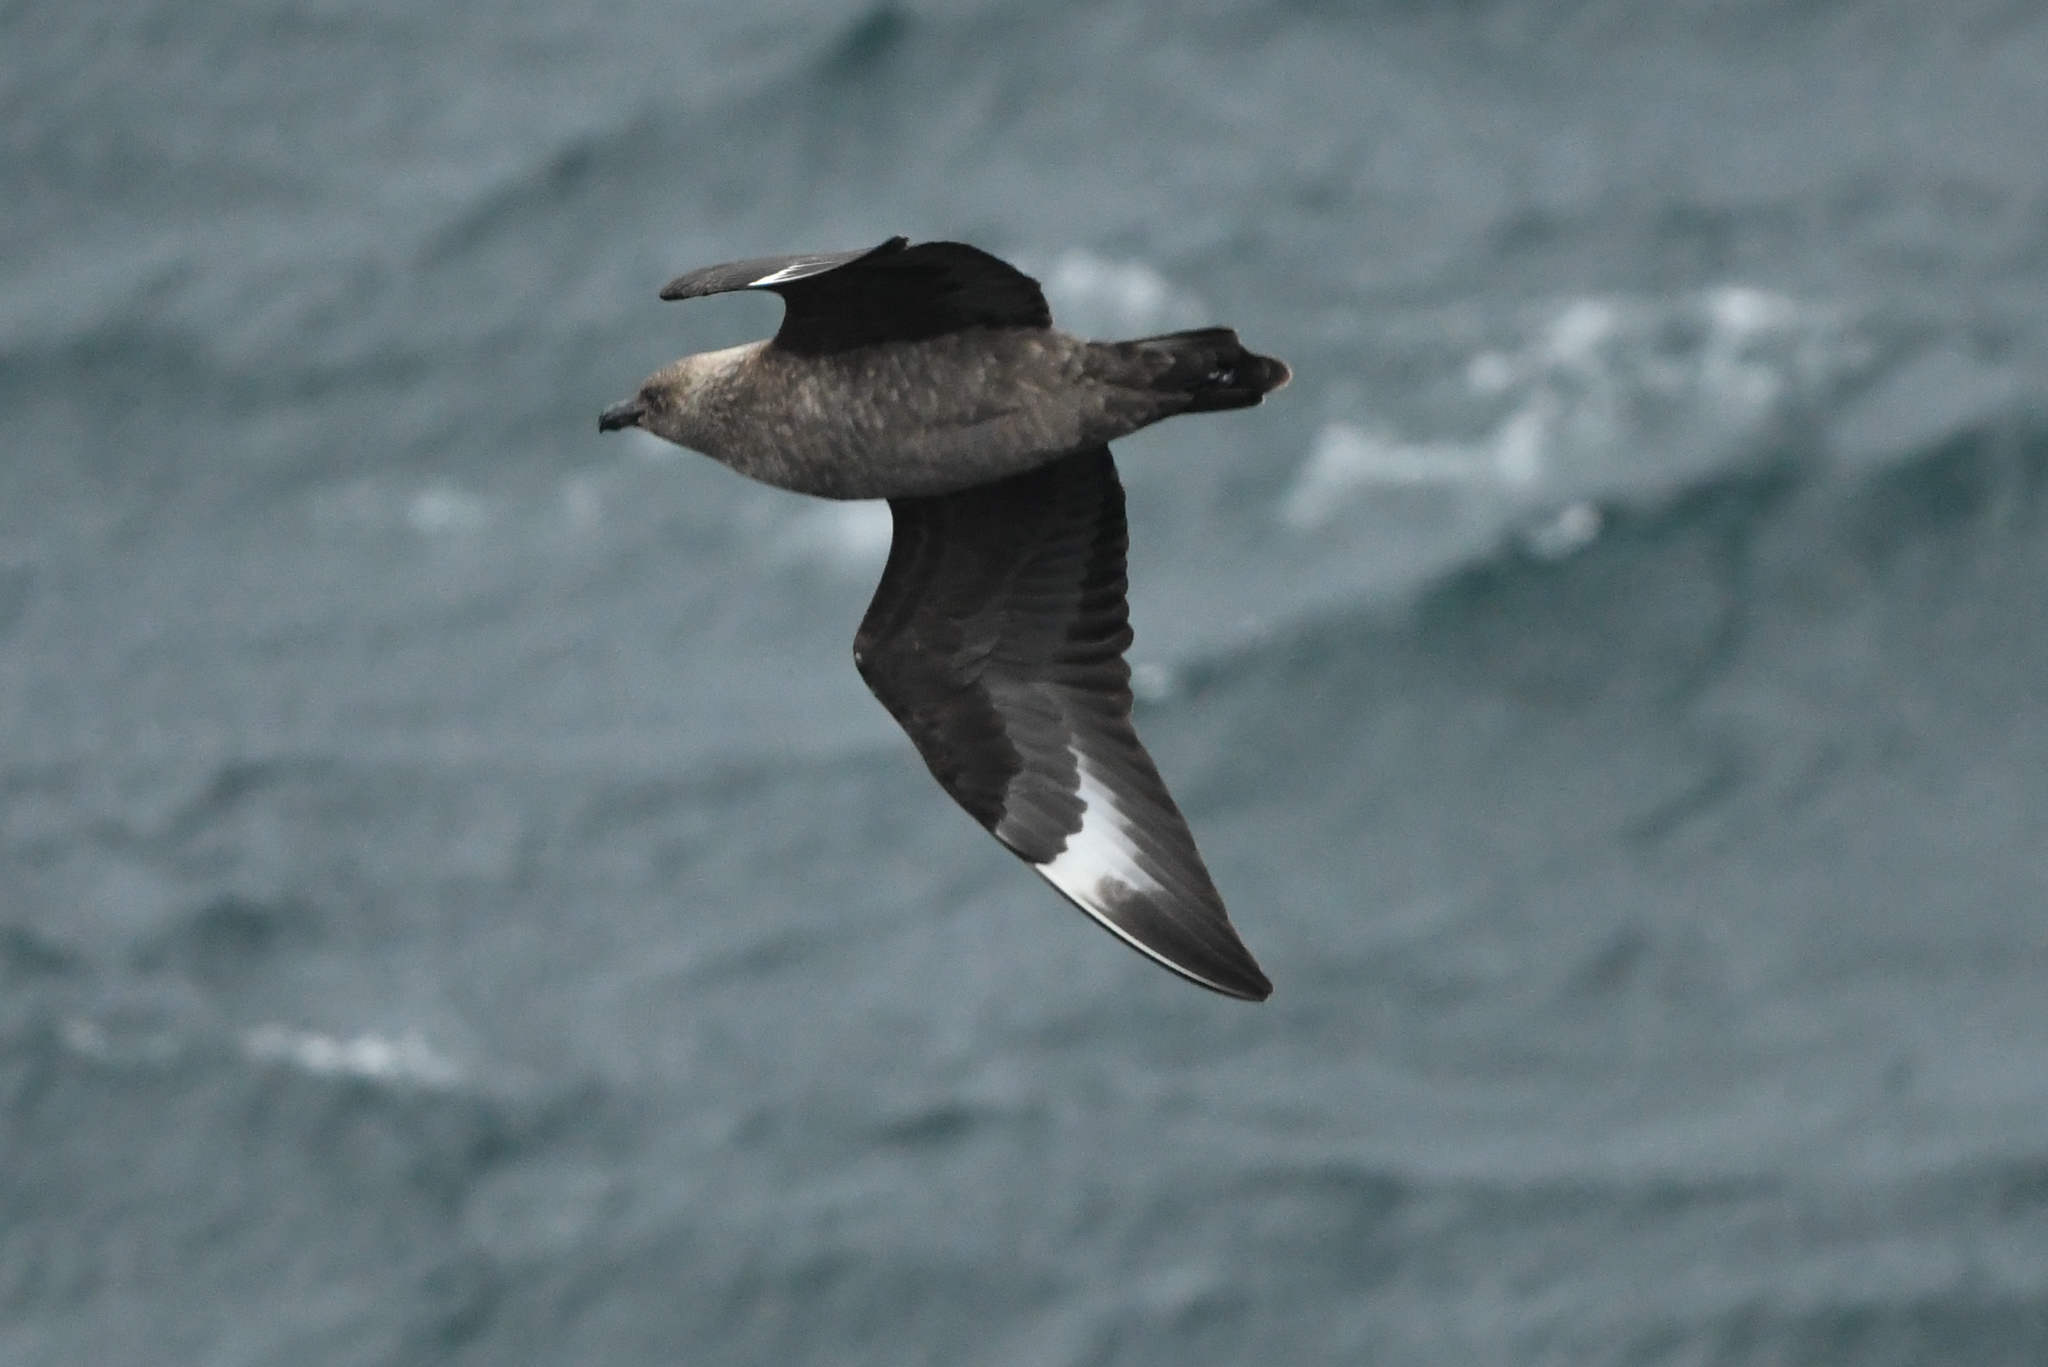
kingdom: Animalia
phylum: Chordata
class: Aves
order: Charadriiformes
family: Stercorariidae
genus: Stercorarius
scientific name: Stercorarius maccormicki
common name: South polar skua
